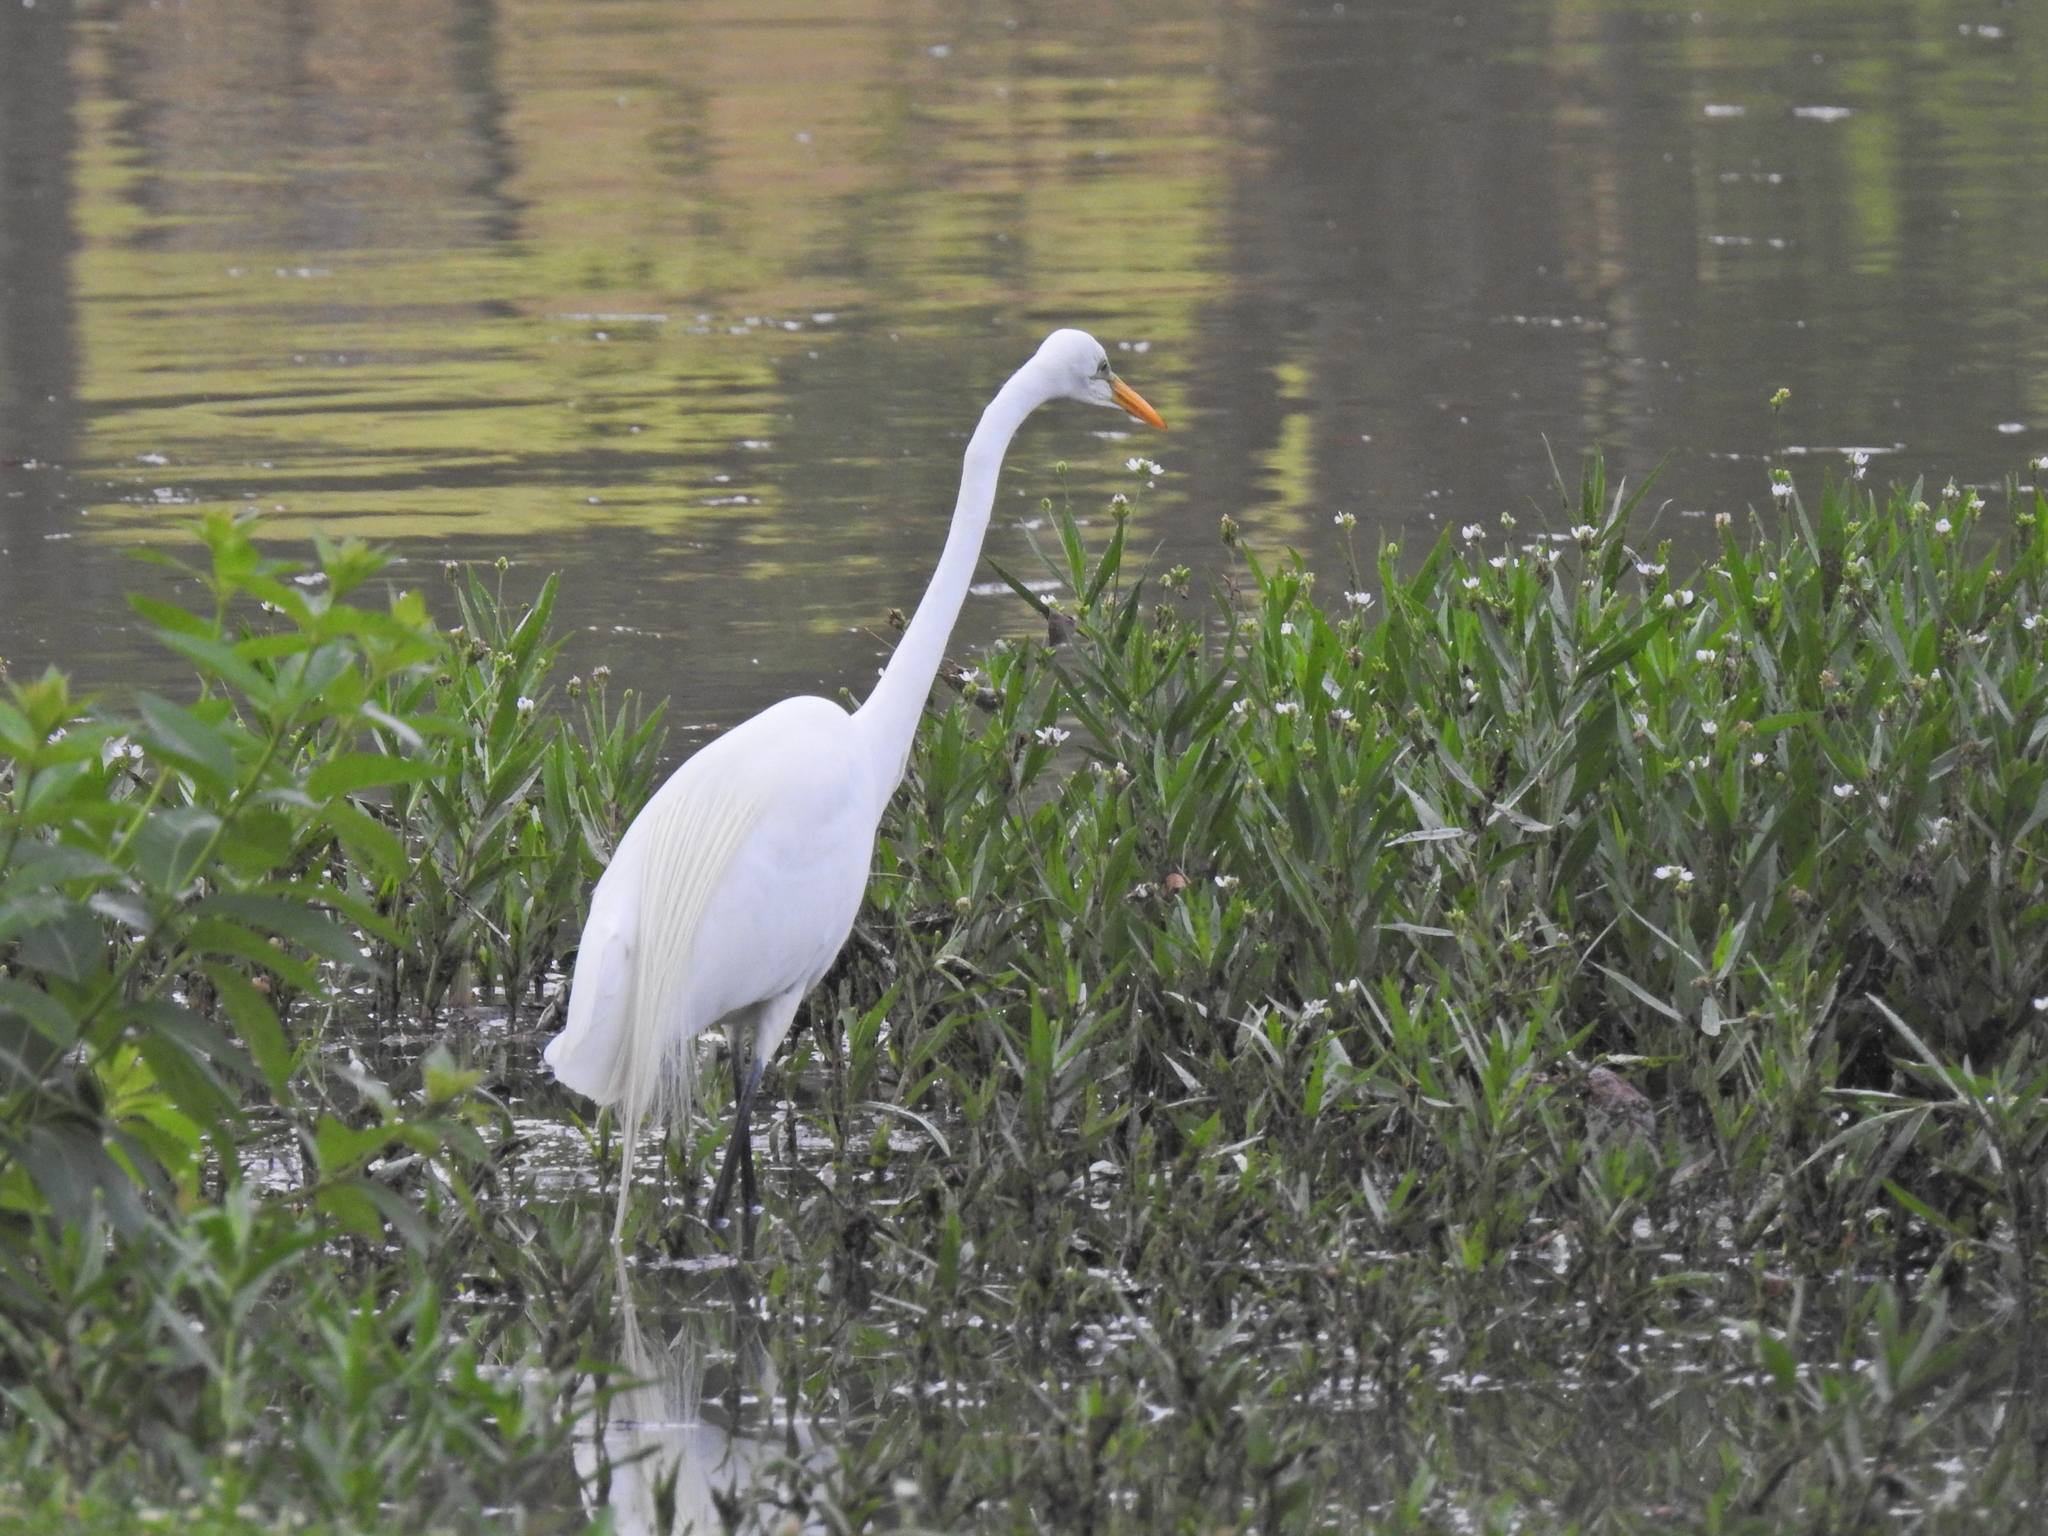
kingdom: Animalia
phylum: Chordata
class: Aves
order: Pelecaniformes
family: Ardeidae
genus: Ardea
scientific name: Ardea alba
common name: Great egret
